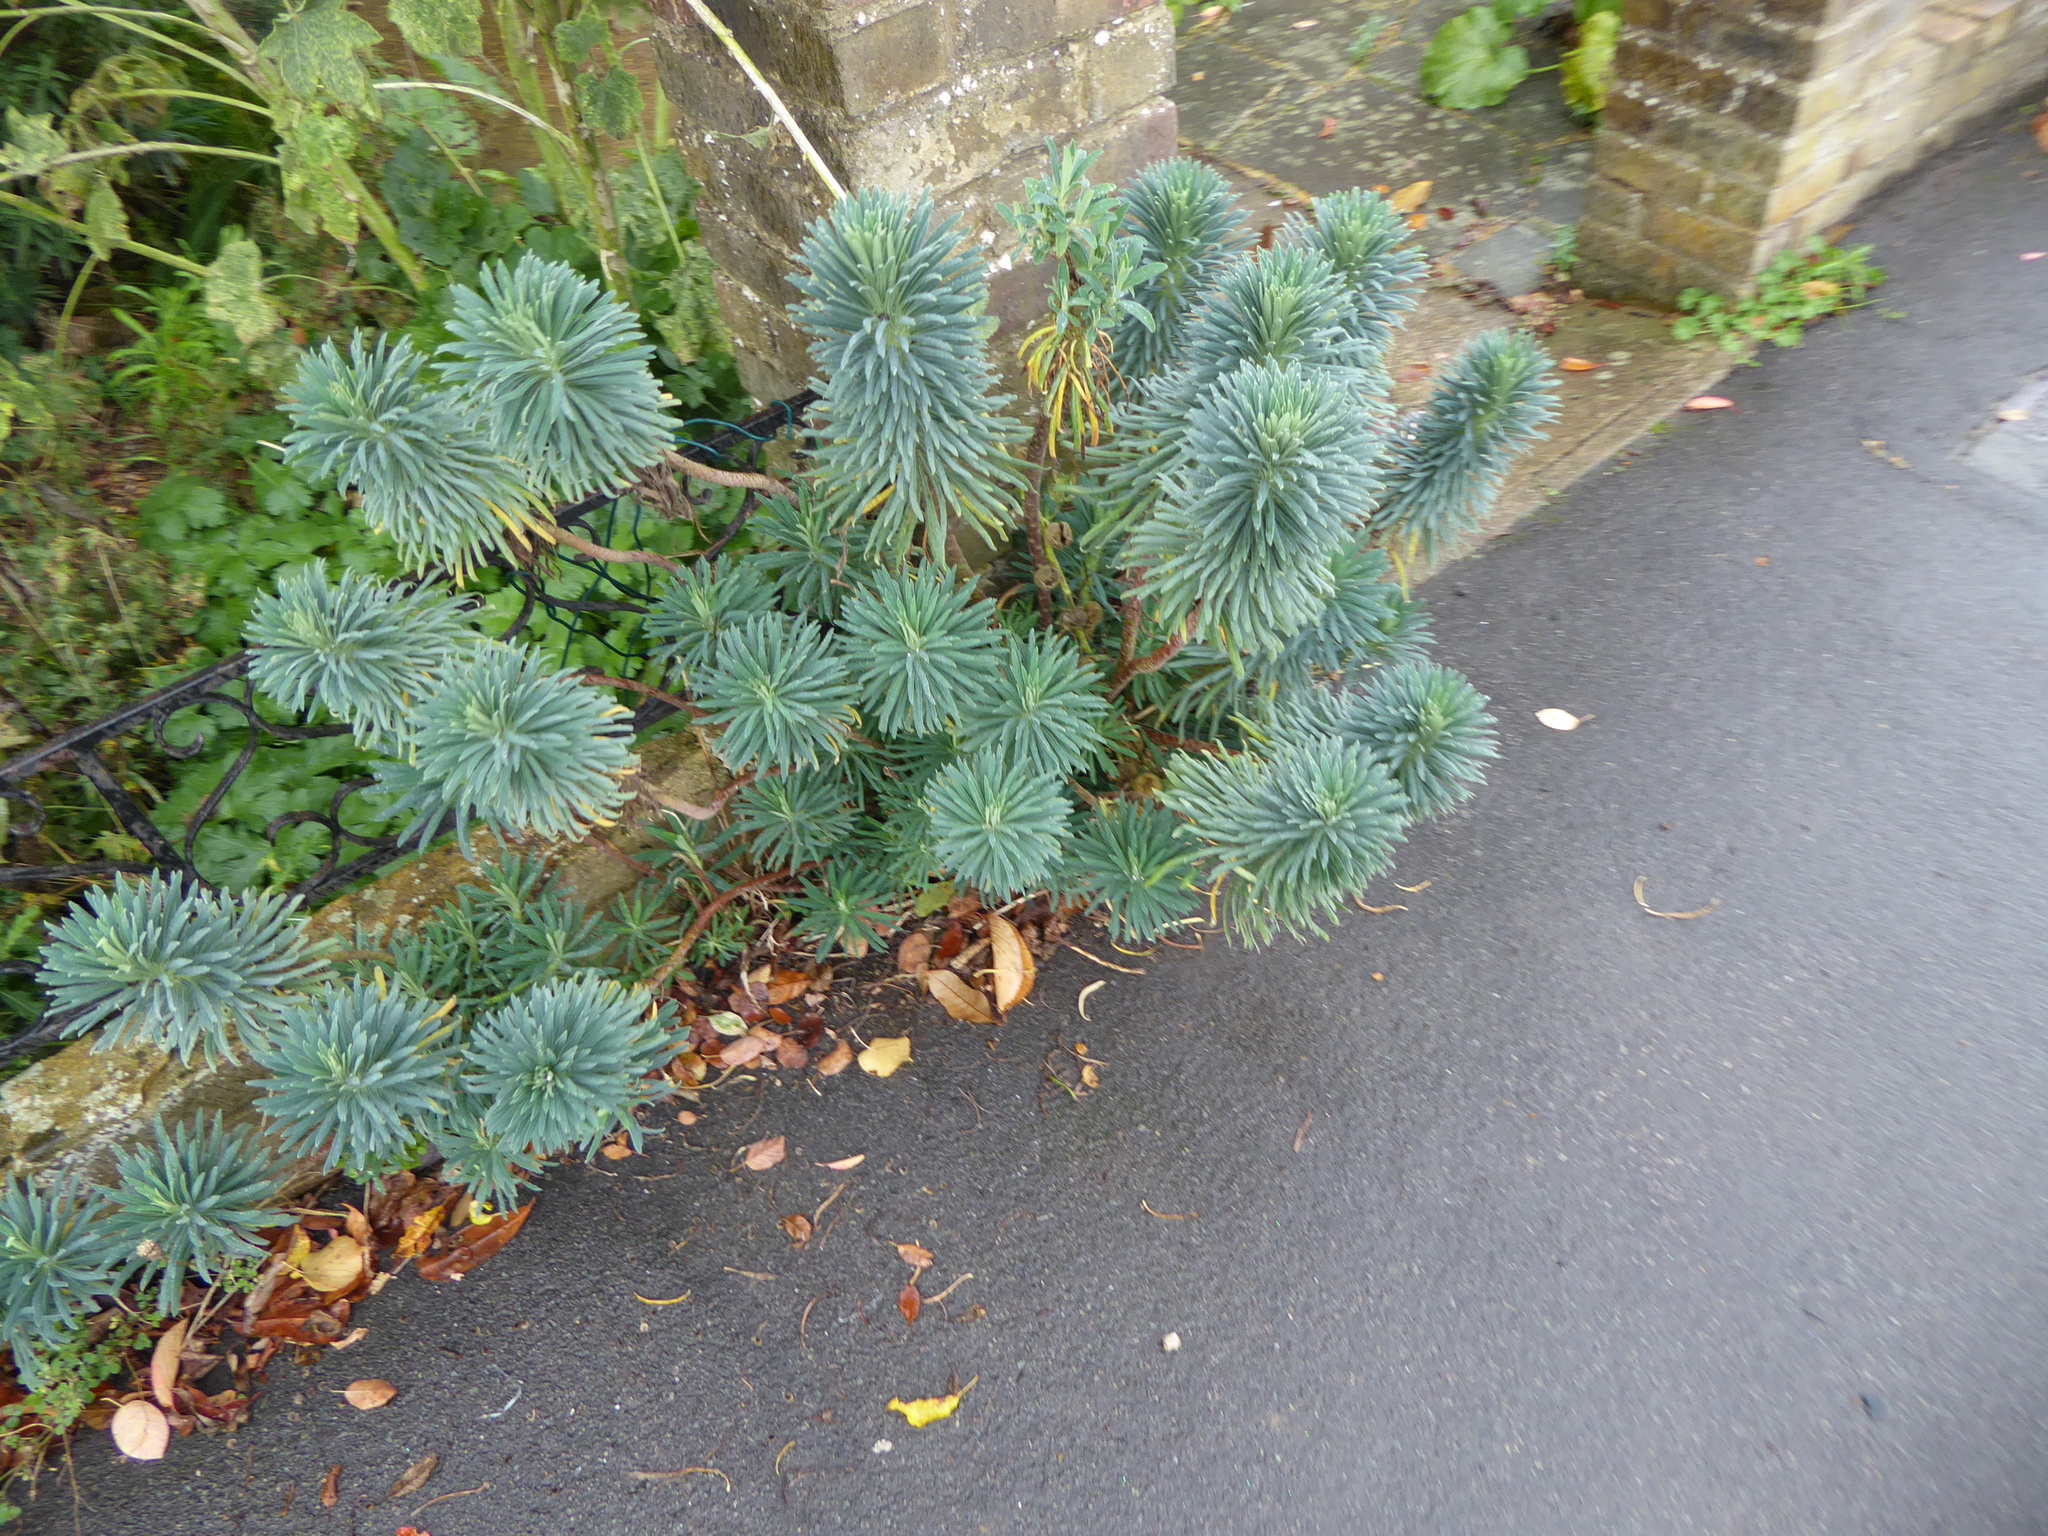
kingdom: Plantae
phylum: Tracheophyta
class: Magnoliopsida
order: Malpighiales
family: Euphorbiaceae
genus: Euphorbia
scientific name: Euphorbia characias
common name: Mediterranean spurge
